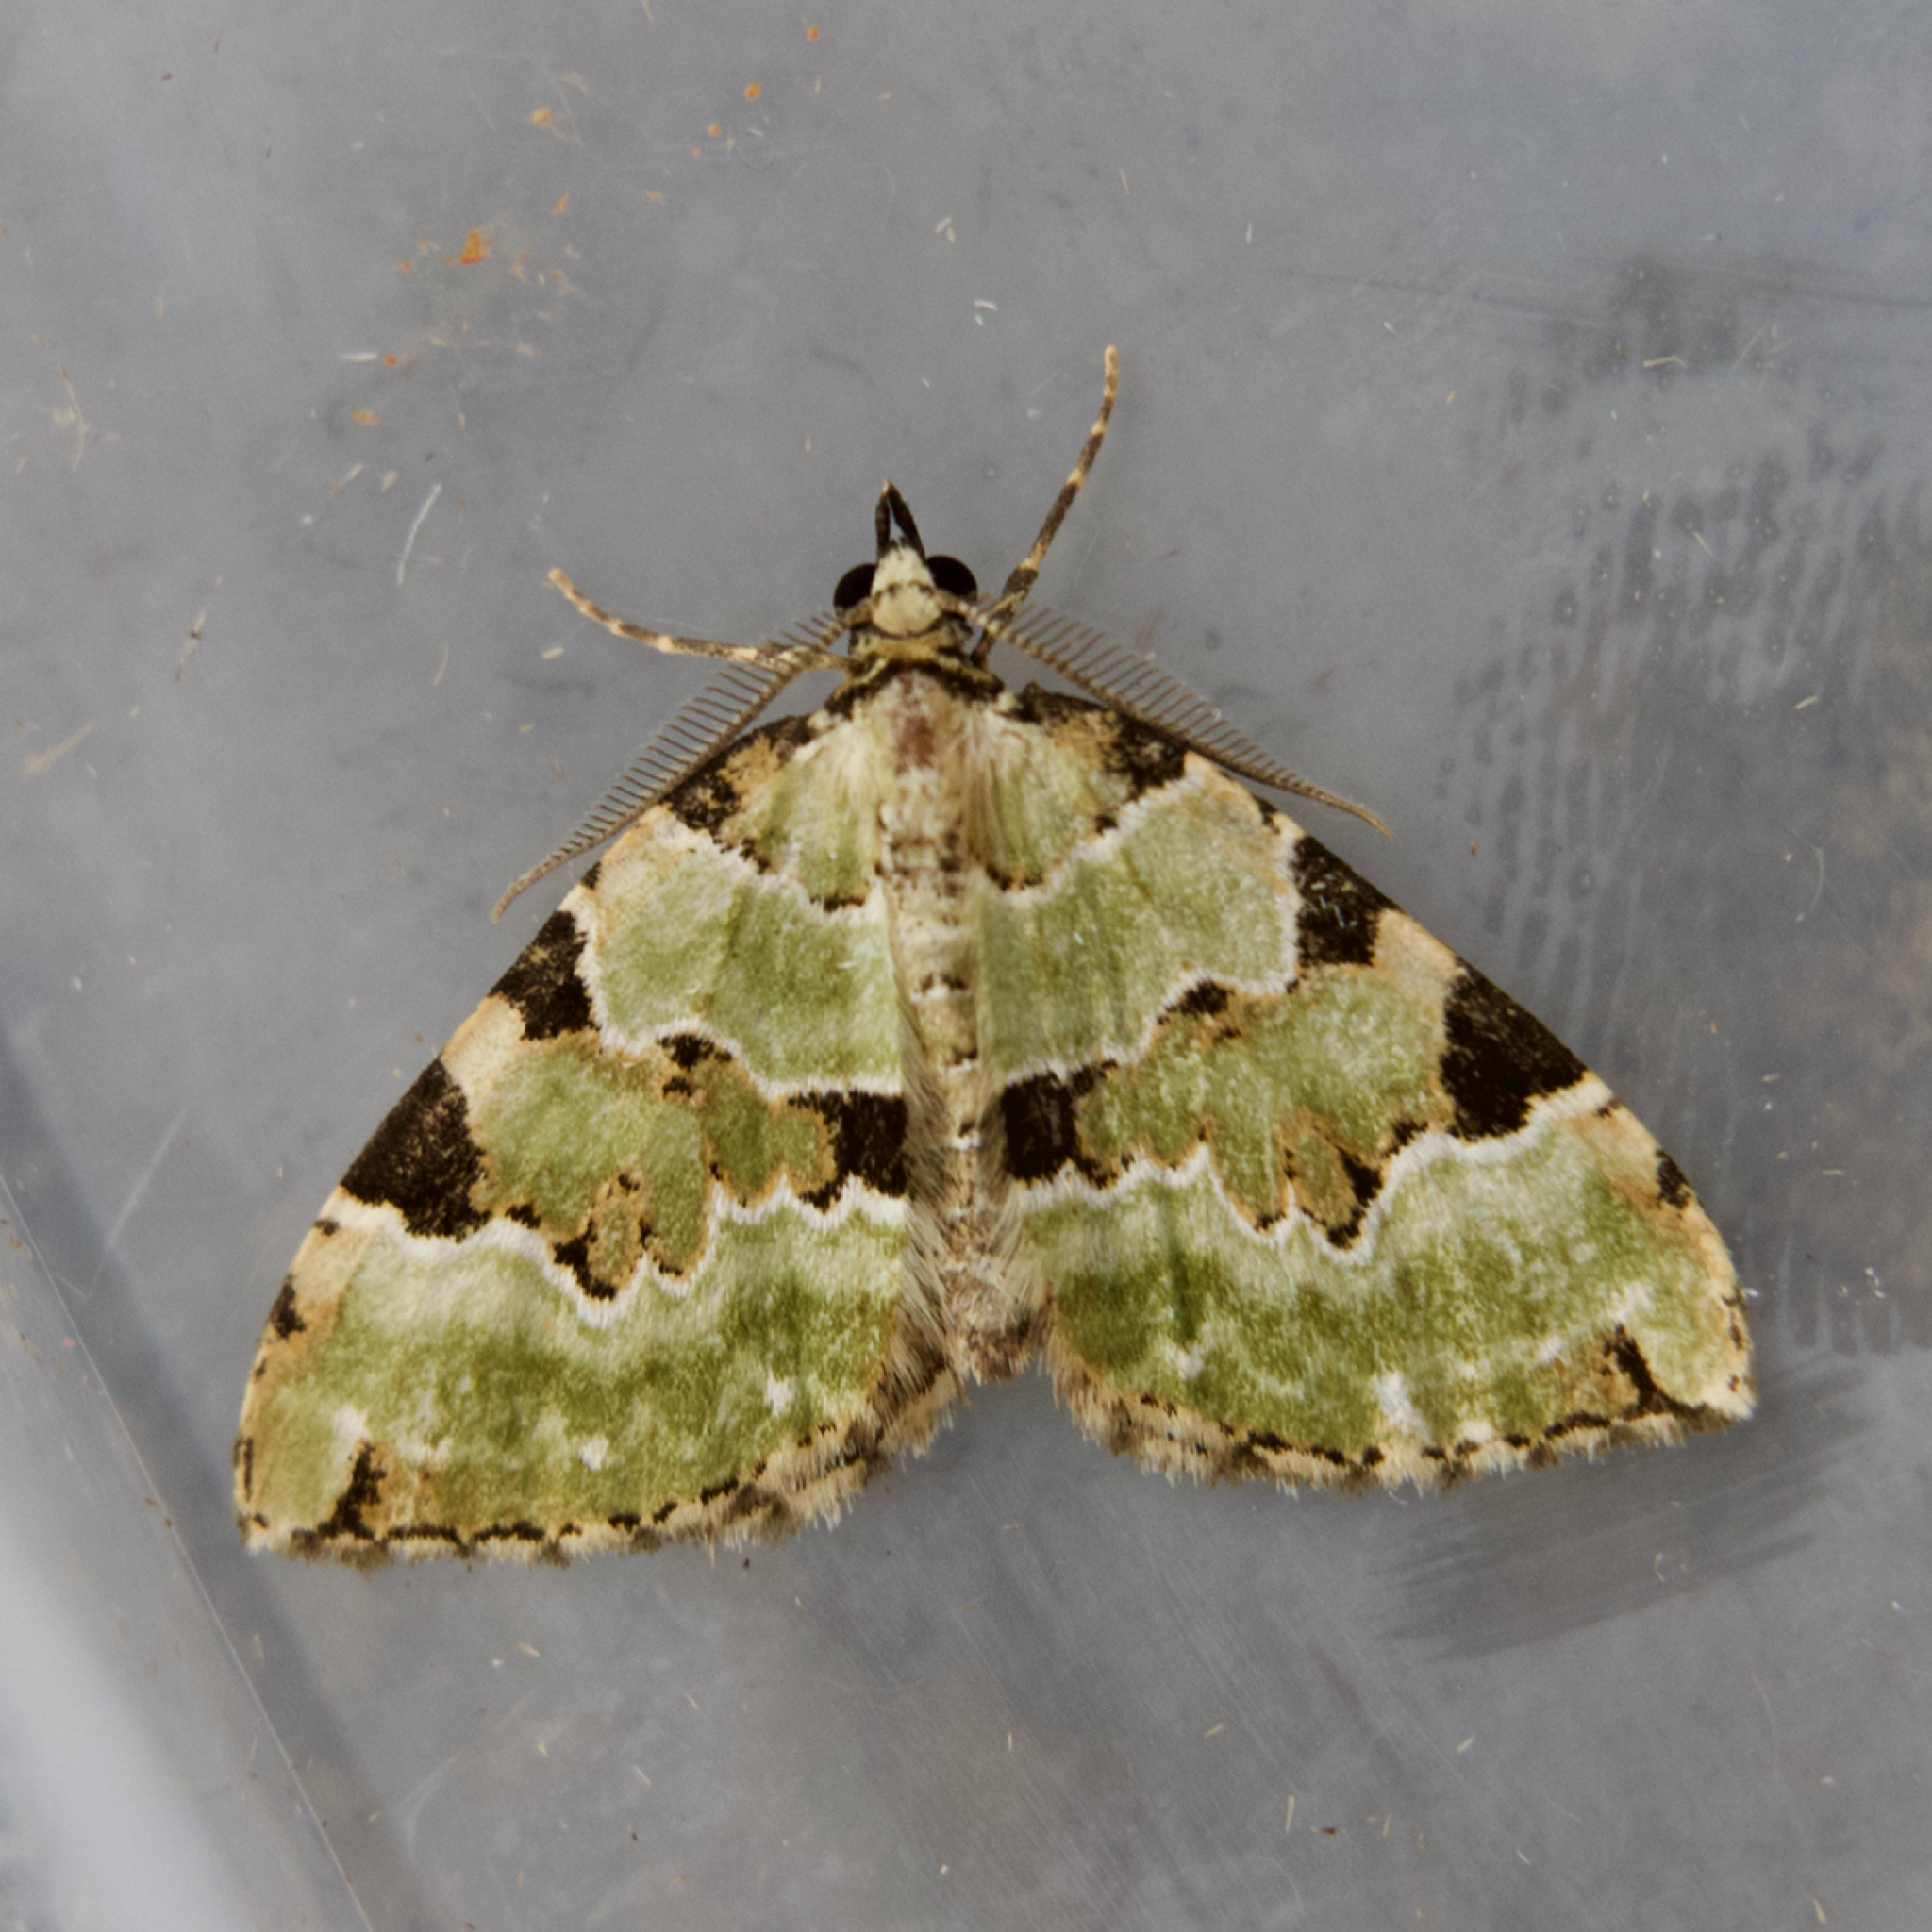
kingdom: Animalia
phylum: Arthropoda
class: Insecta
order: Lepidoptera
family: Geometridae
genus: Colostygia
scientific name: Colostygia pectinataria
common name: Green carpet
